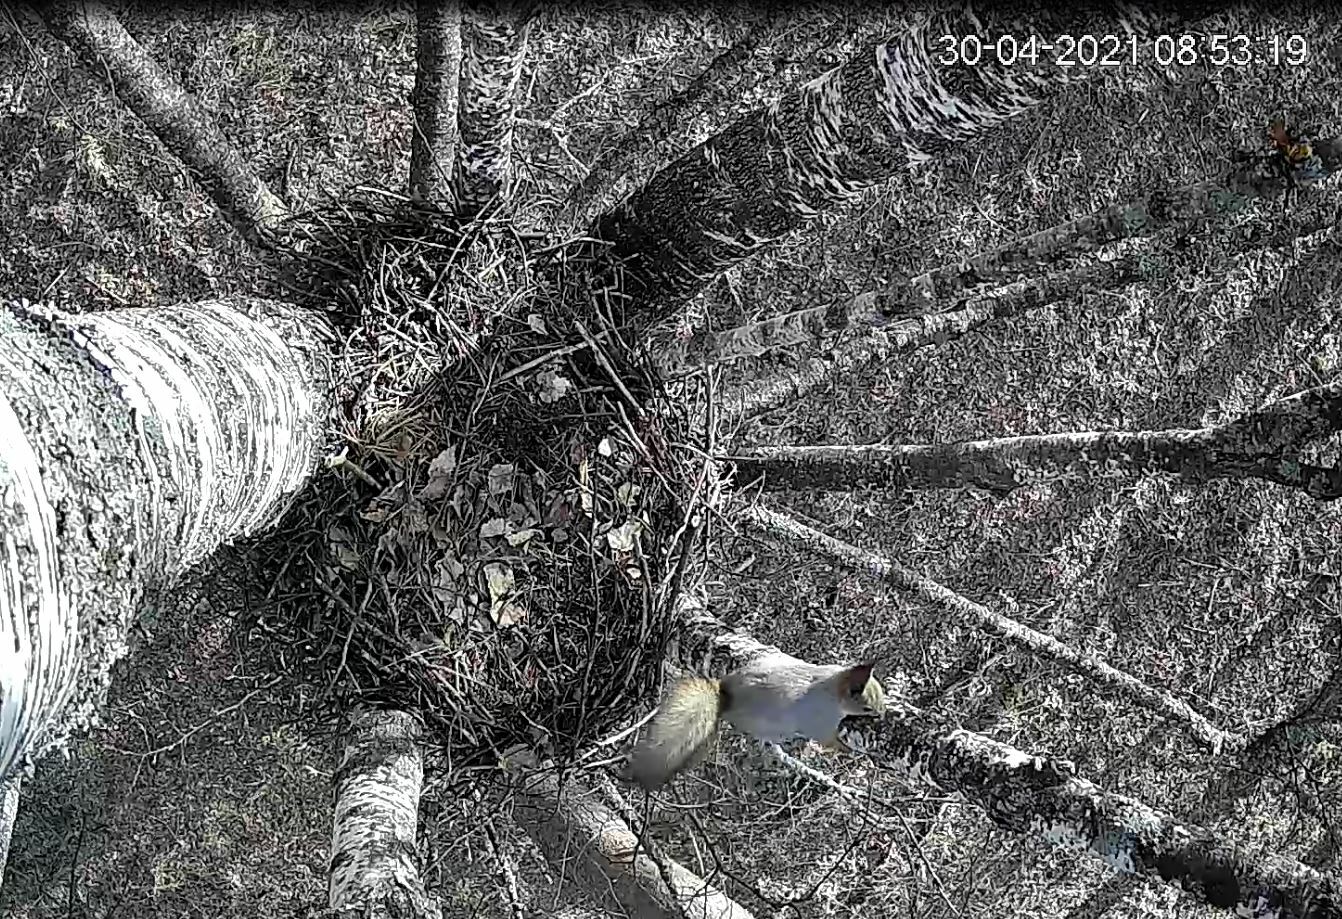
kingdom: Animalia
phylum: Chordata
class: Mammalia
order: Rodentia
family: Sciuridae
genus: Sciurus
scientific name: Sciurus vulgaris
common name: Eurasian red squirrel
